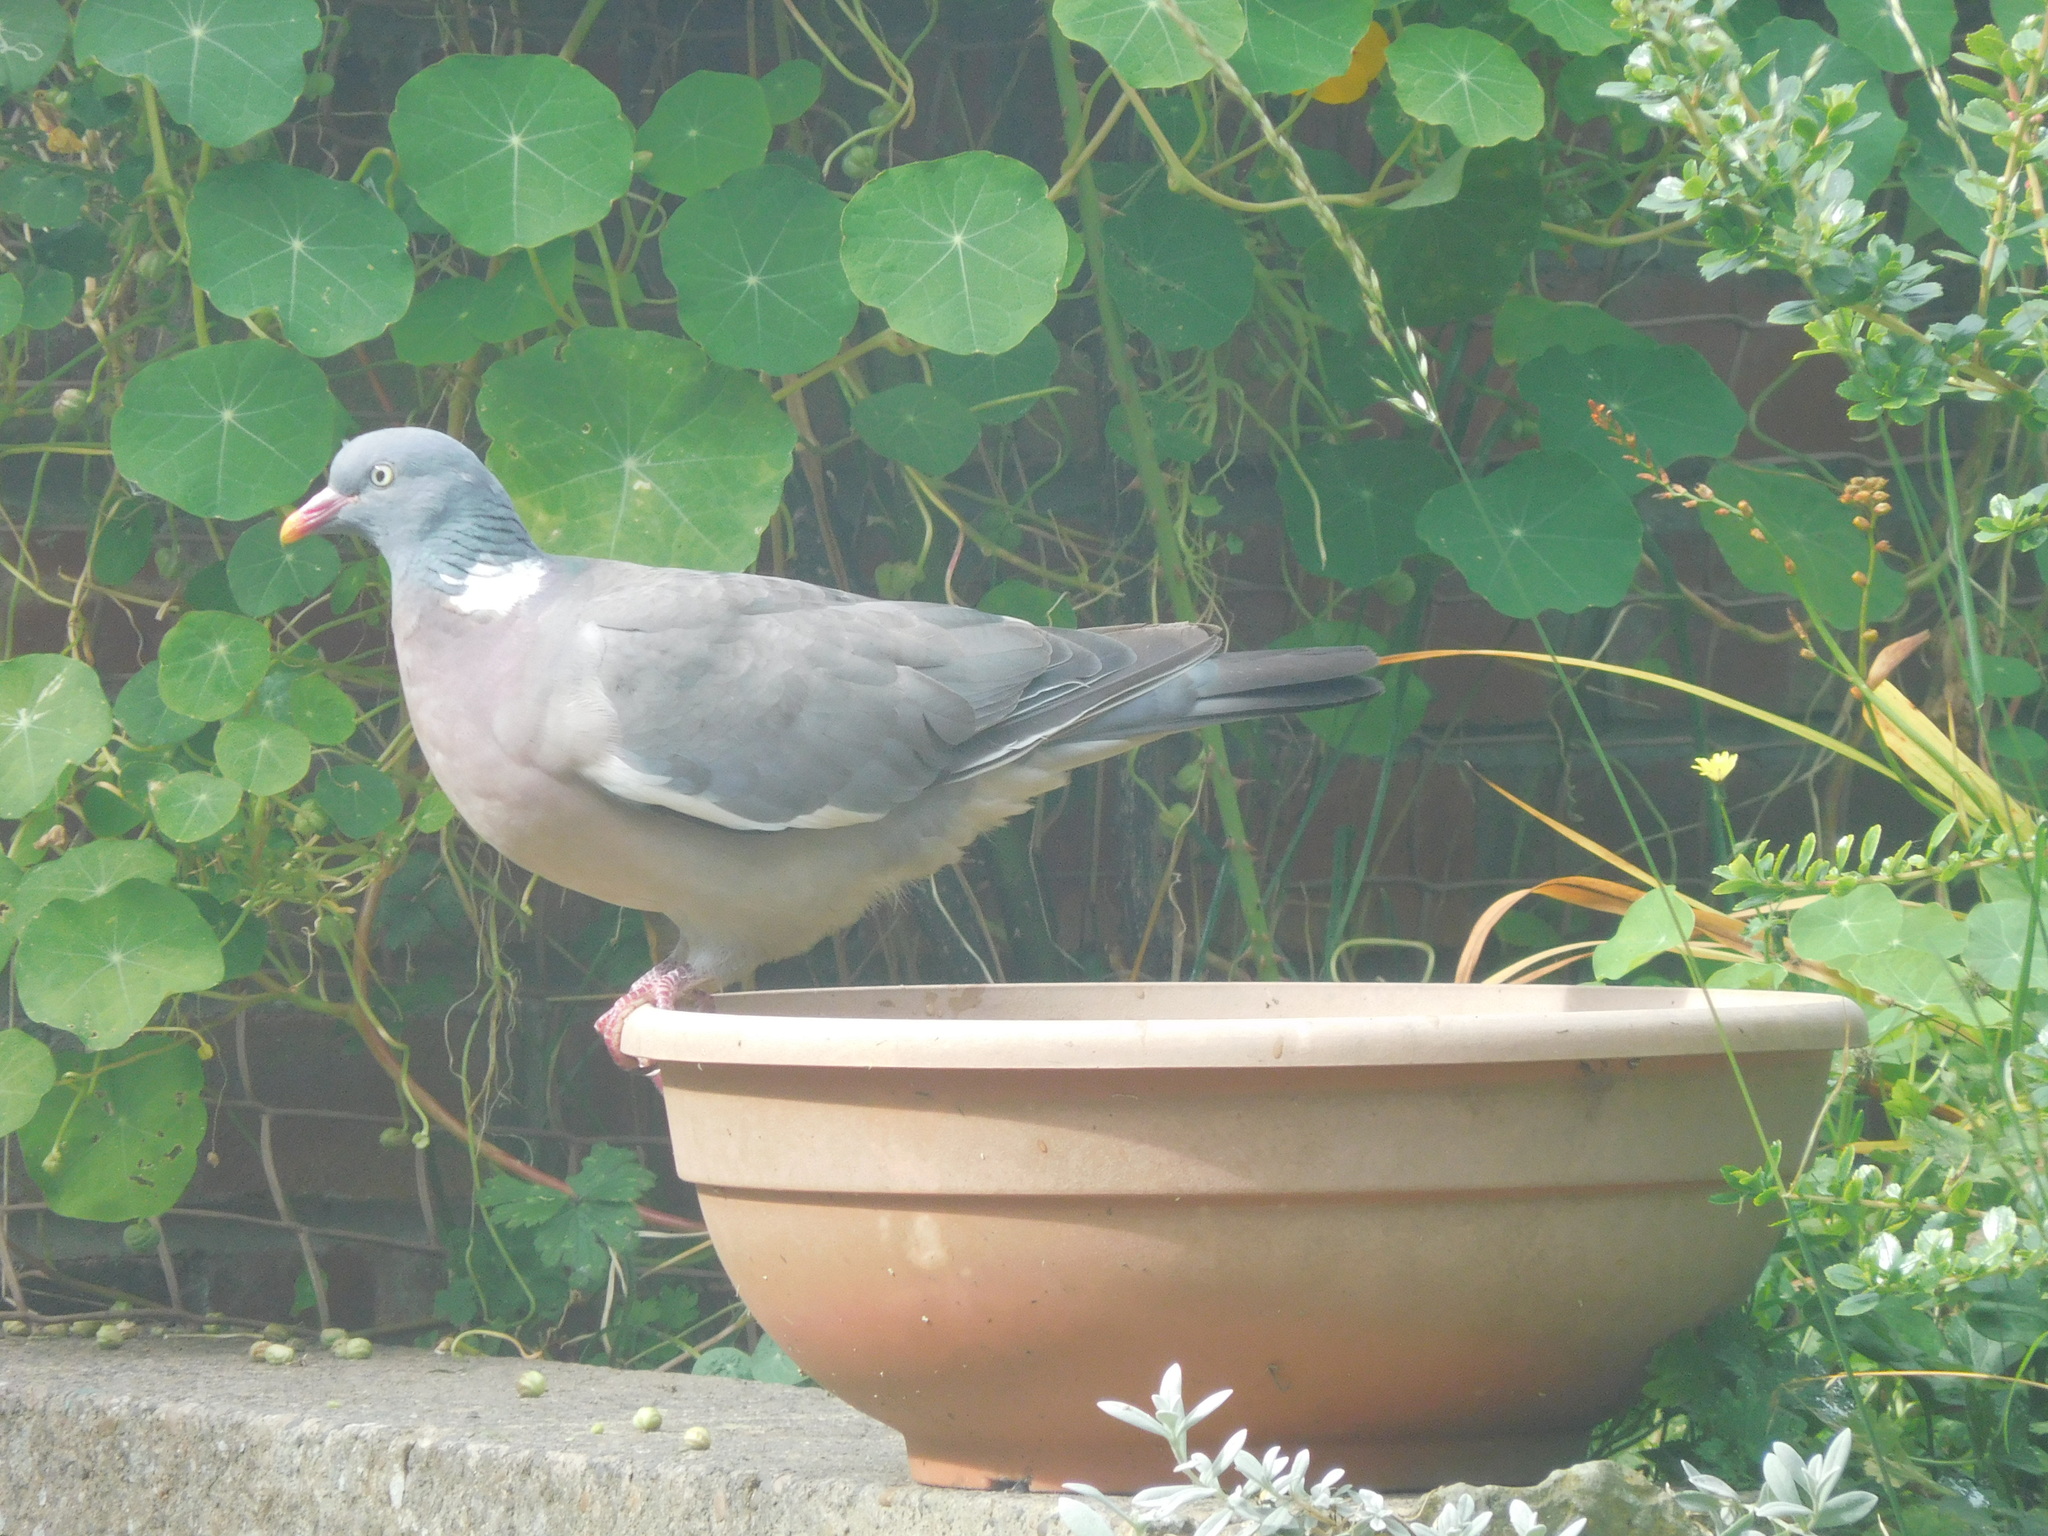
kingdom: Animalia
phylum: Chordata
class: Aves
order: Columbiformes
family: Columbidae
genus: Columba
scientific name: Columba palumbus
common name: Common wood pigeon
